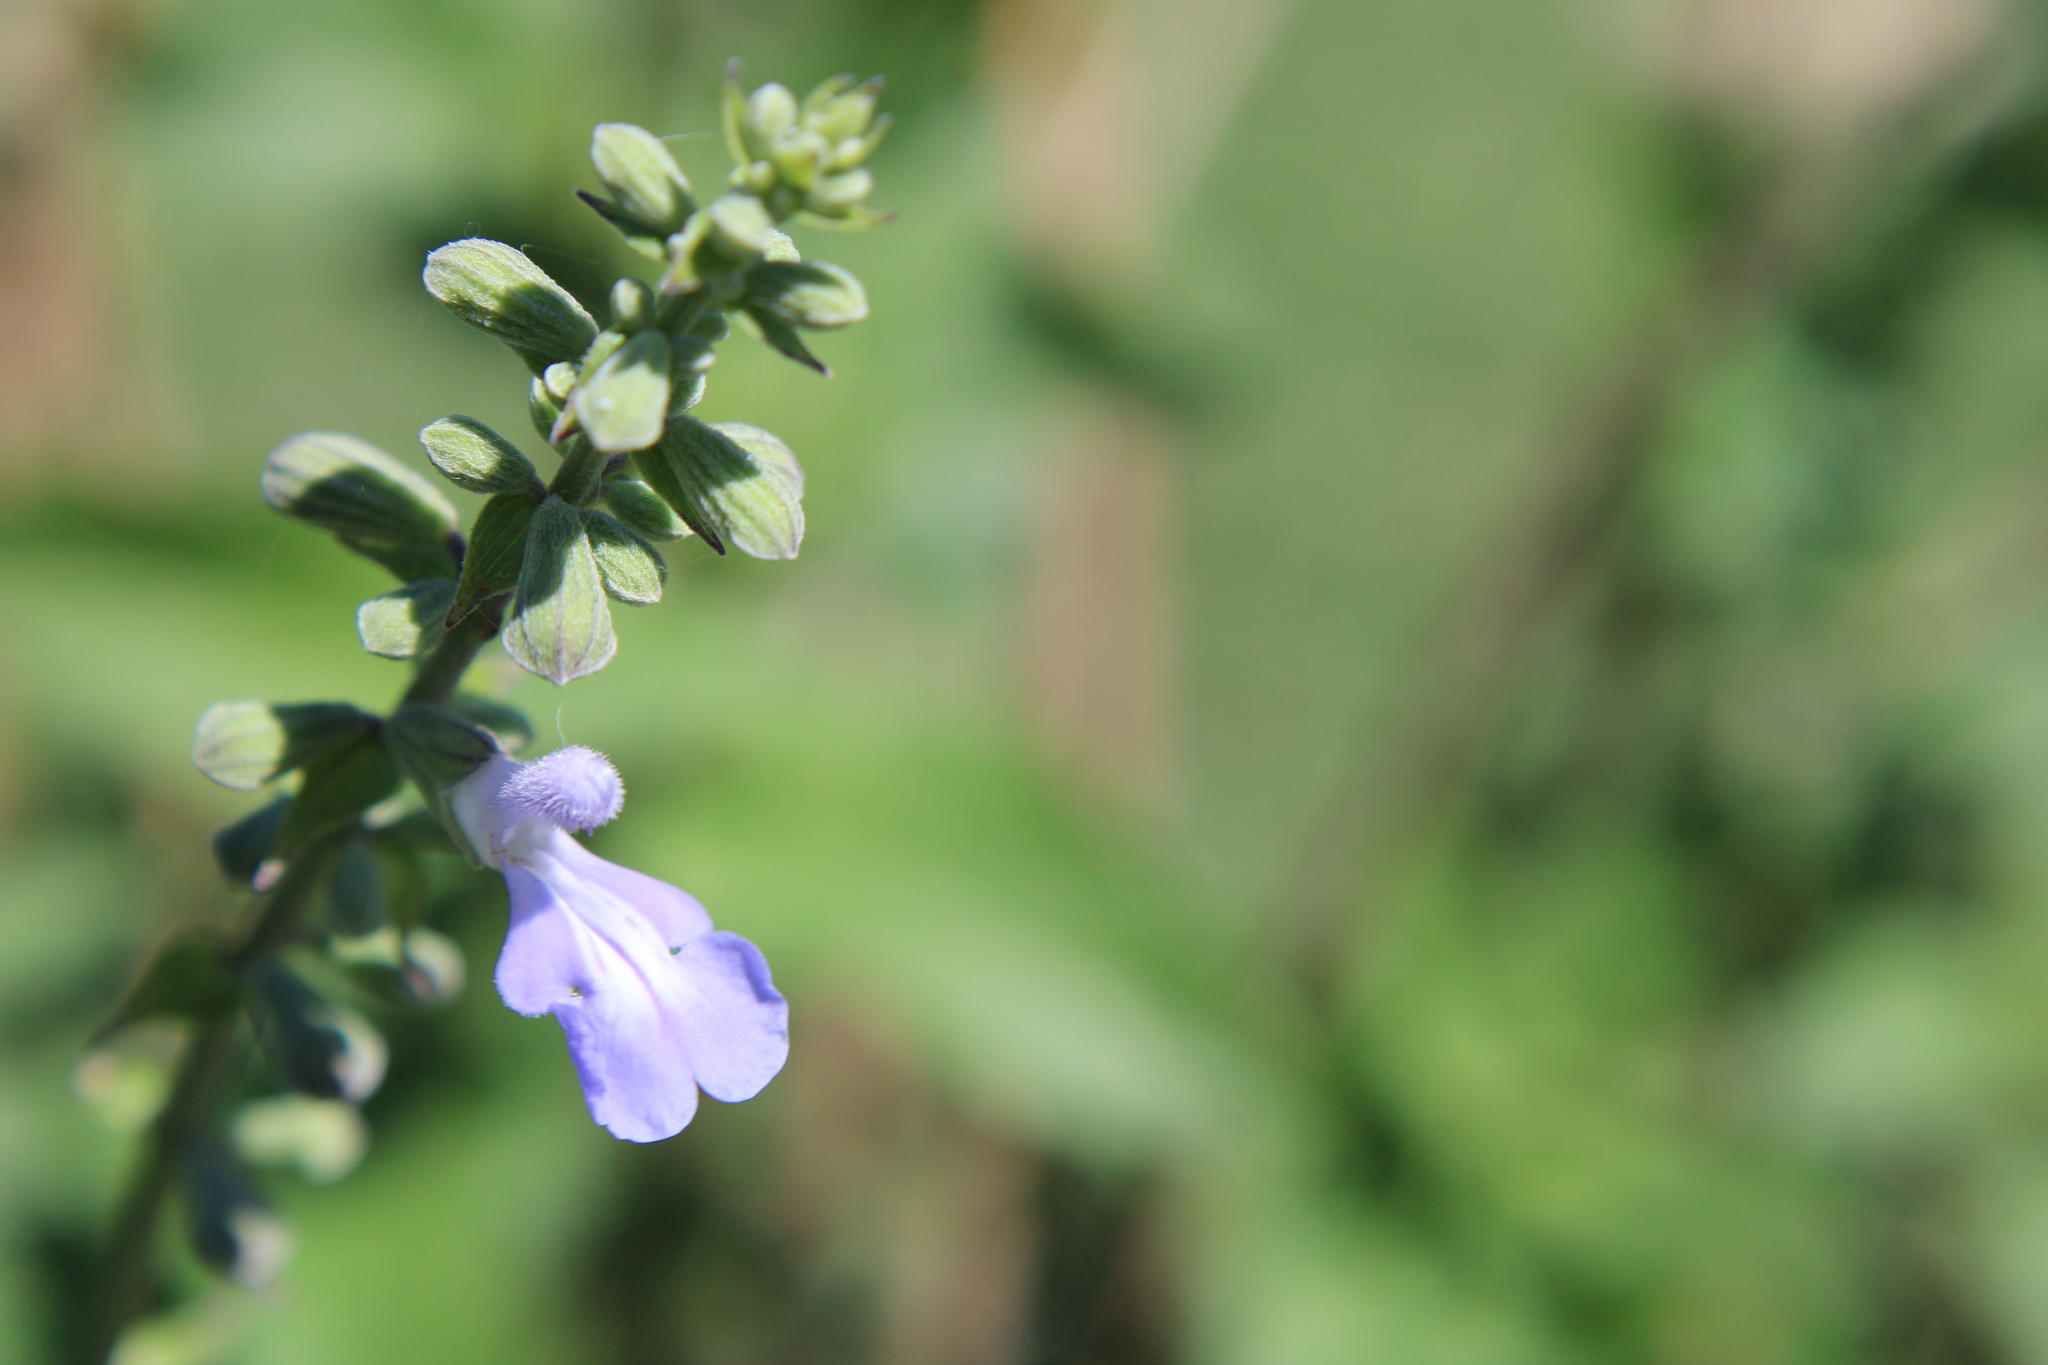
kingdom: Plantae
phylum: Tracheophyta
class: Magnoliopsida
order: Lamiales
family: Lamiaceae
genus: Salvia
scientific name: Salvia pallida
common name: Pale sage
